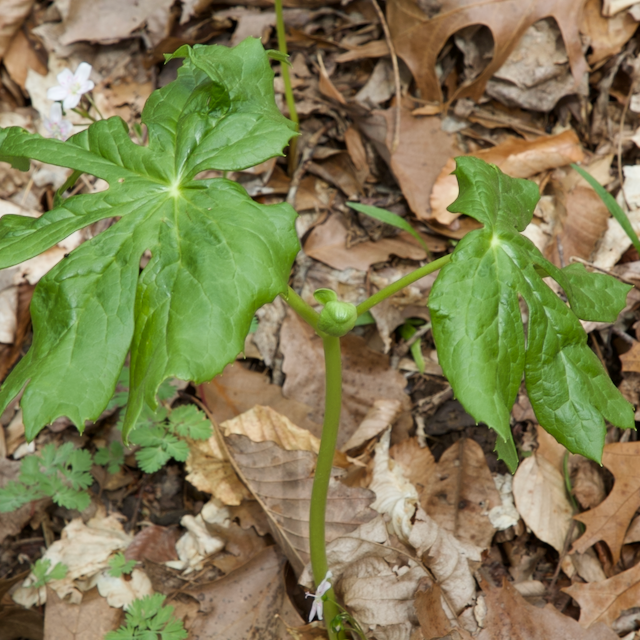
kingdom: Plantae
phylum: Tracheophyta
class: Magnoliopsida
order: Ranunculales
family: Berberidaceae
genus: Podophyllum
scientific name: Podophyllum peltatum
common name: Wild mandrake
